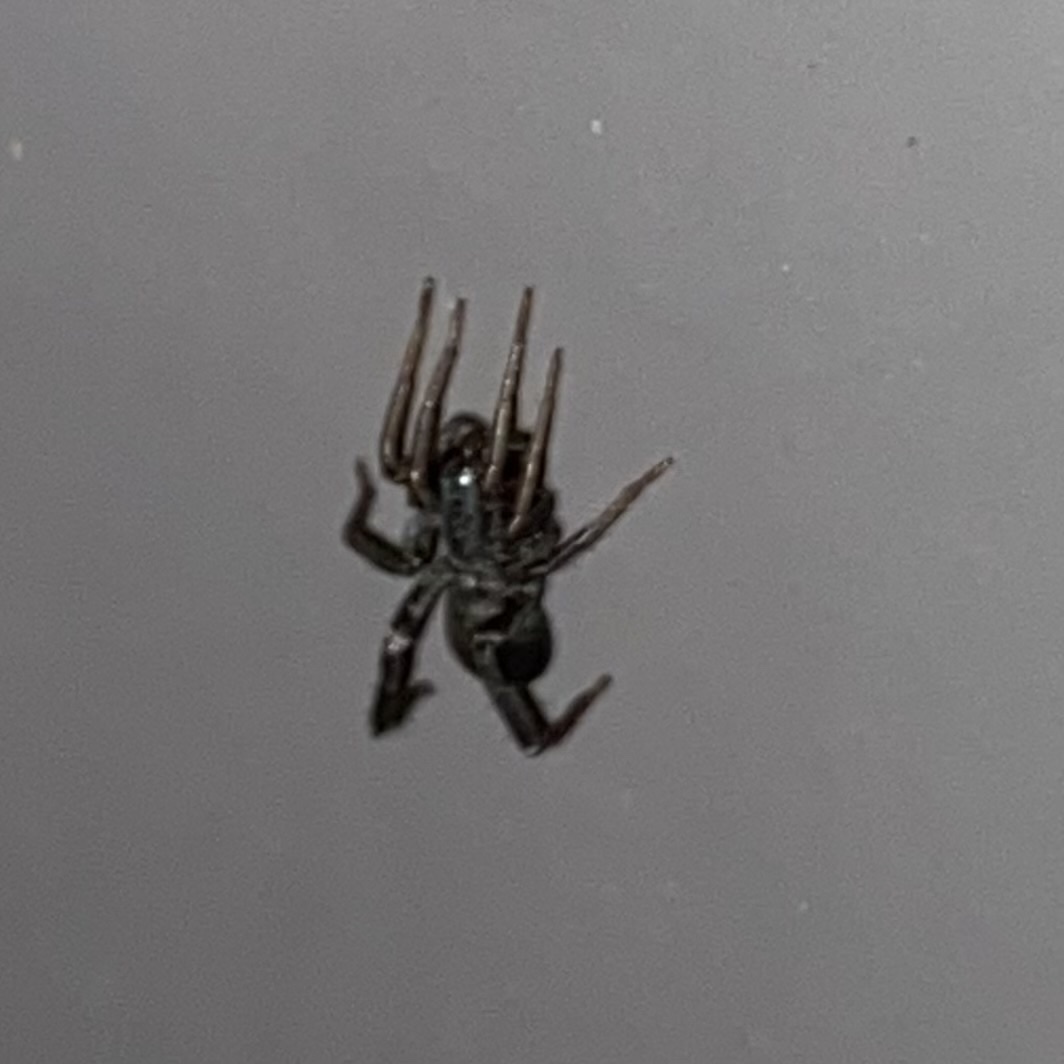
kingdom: Animalia
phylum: Arthropoda
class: Arachnida
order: Araneae
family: Corinnidae
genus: Castianeira
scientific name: Castianeira
